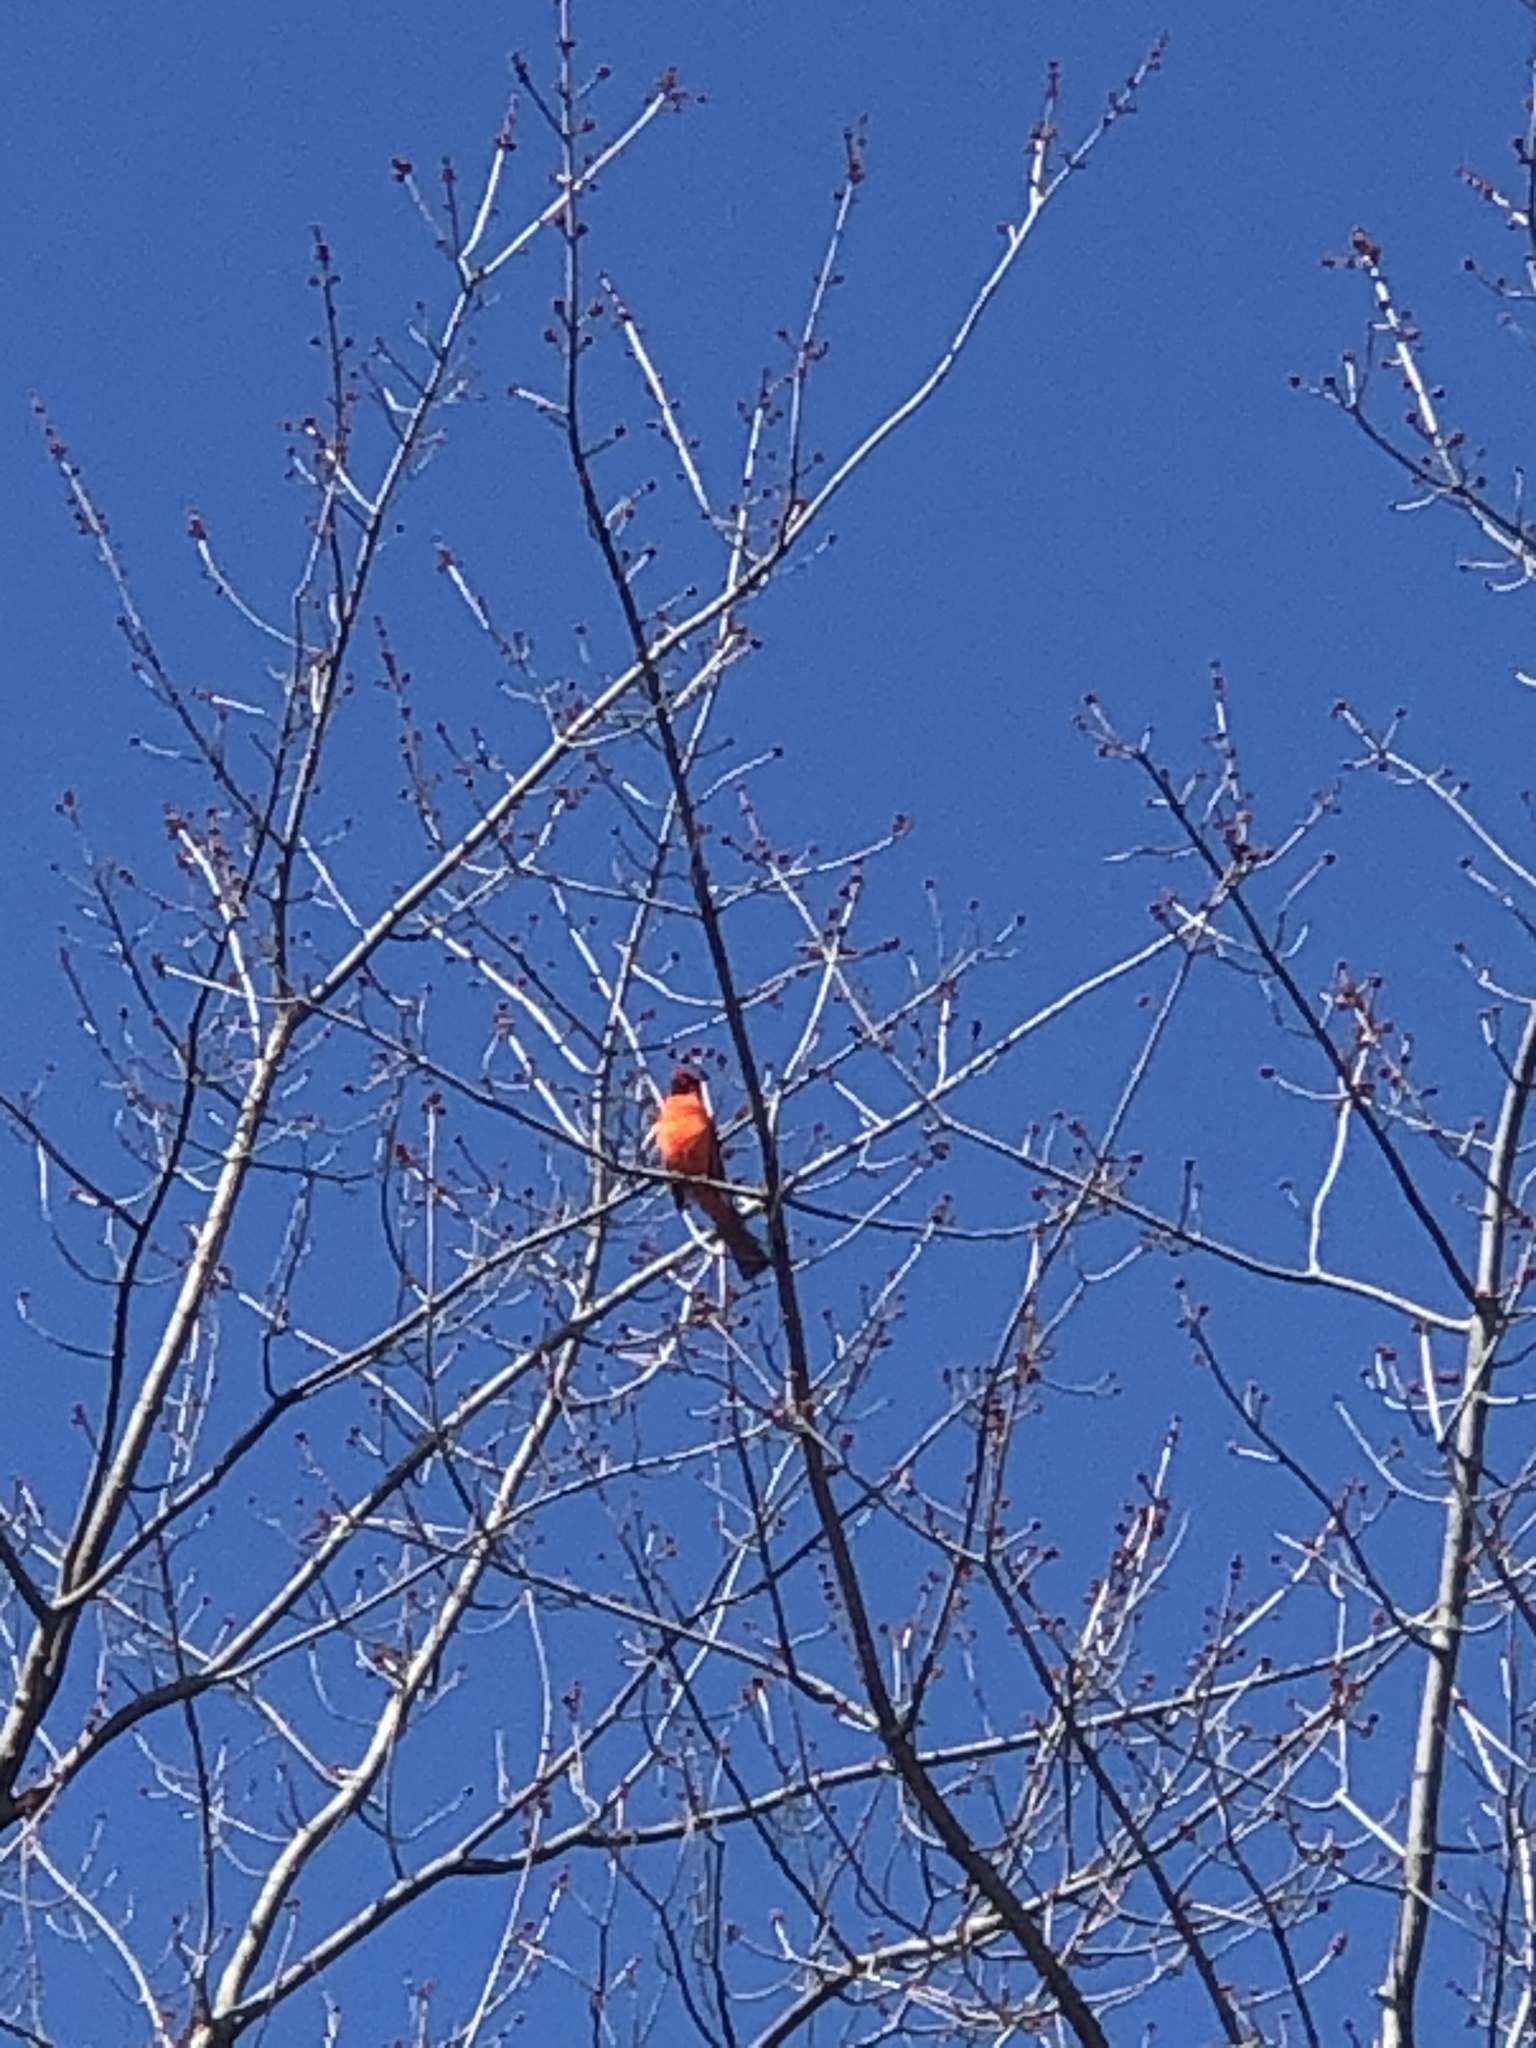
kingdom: Animalia
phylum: Chordata
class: Aves
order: Passeriformes
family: Cardinalidae
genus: Cardinalis
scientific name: Cardinalis cardinalis
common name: Northern cardinal
